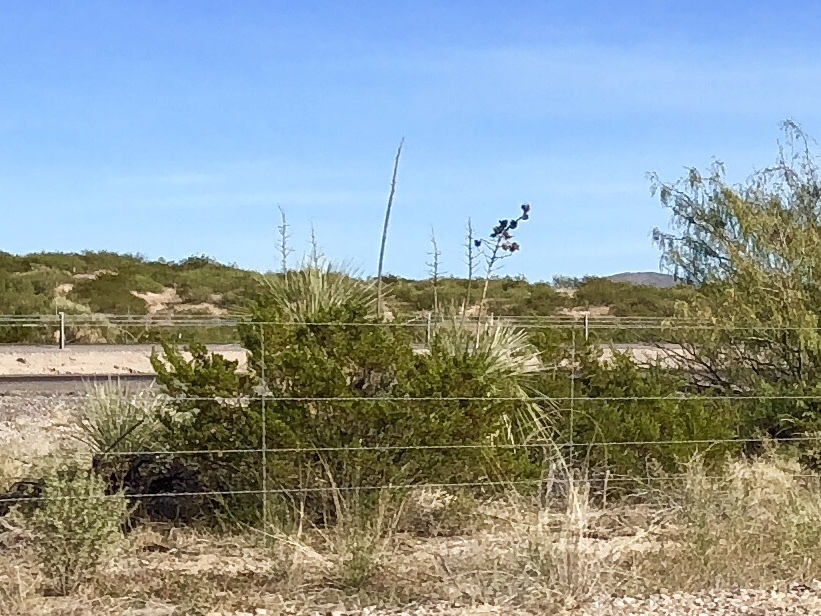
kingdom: Plantae
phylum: Tracheophyta
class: Magnoliopsida
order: Zygophyllales
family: Zygophyllaceae
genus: Larrea
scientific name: Larrea tridentata
